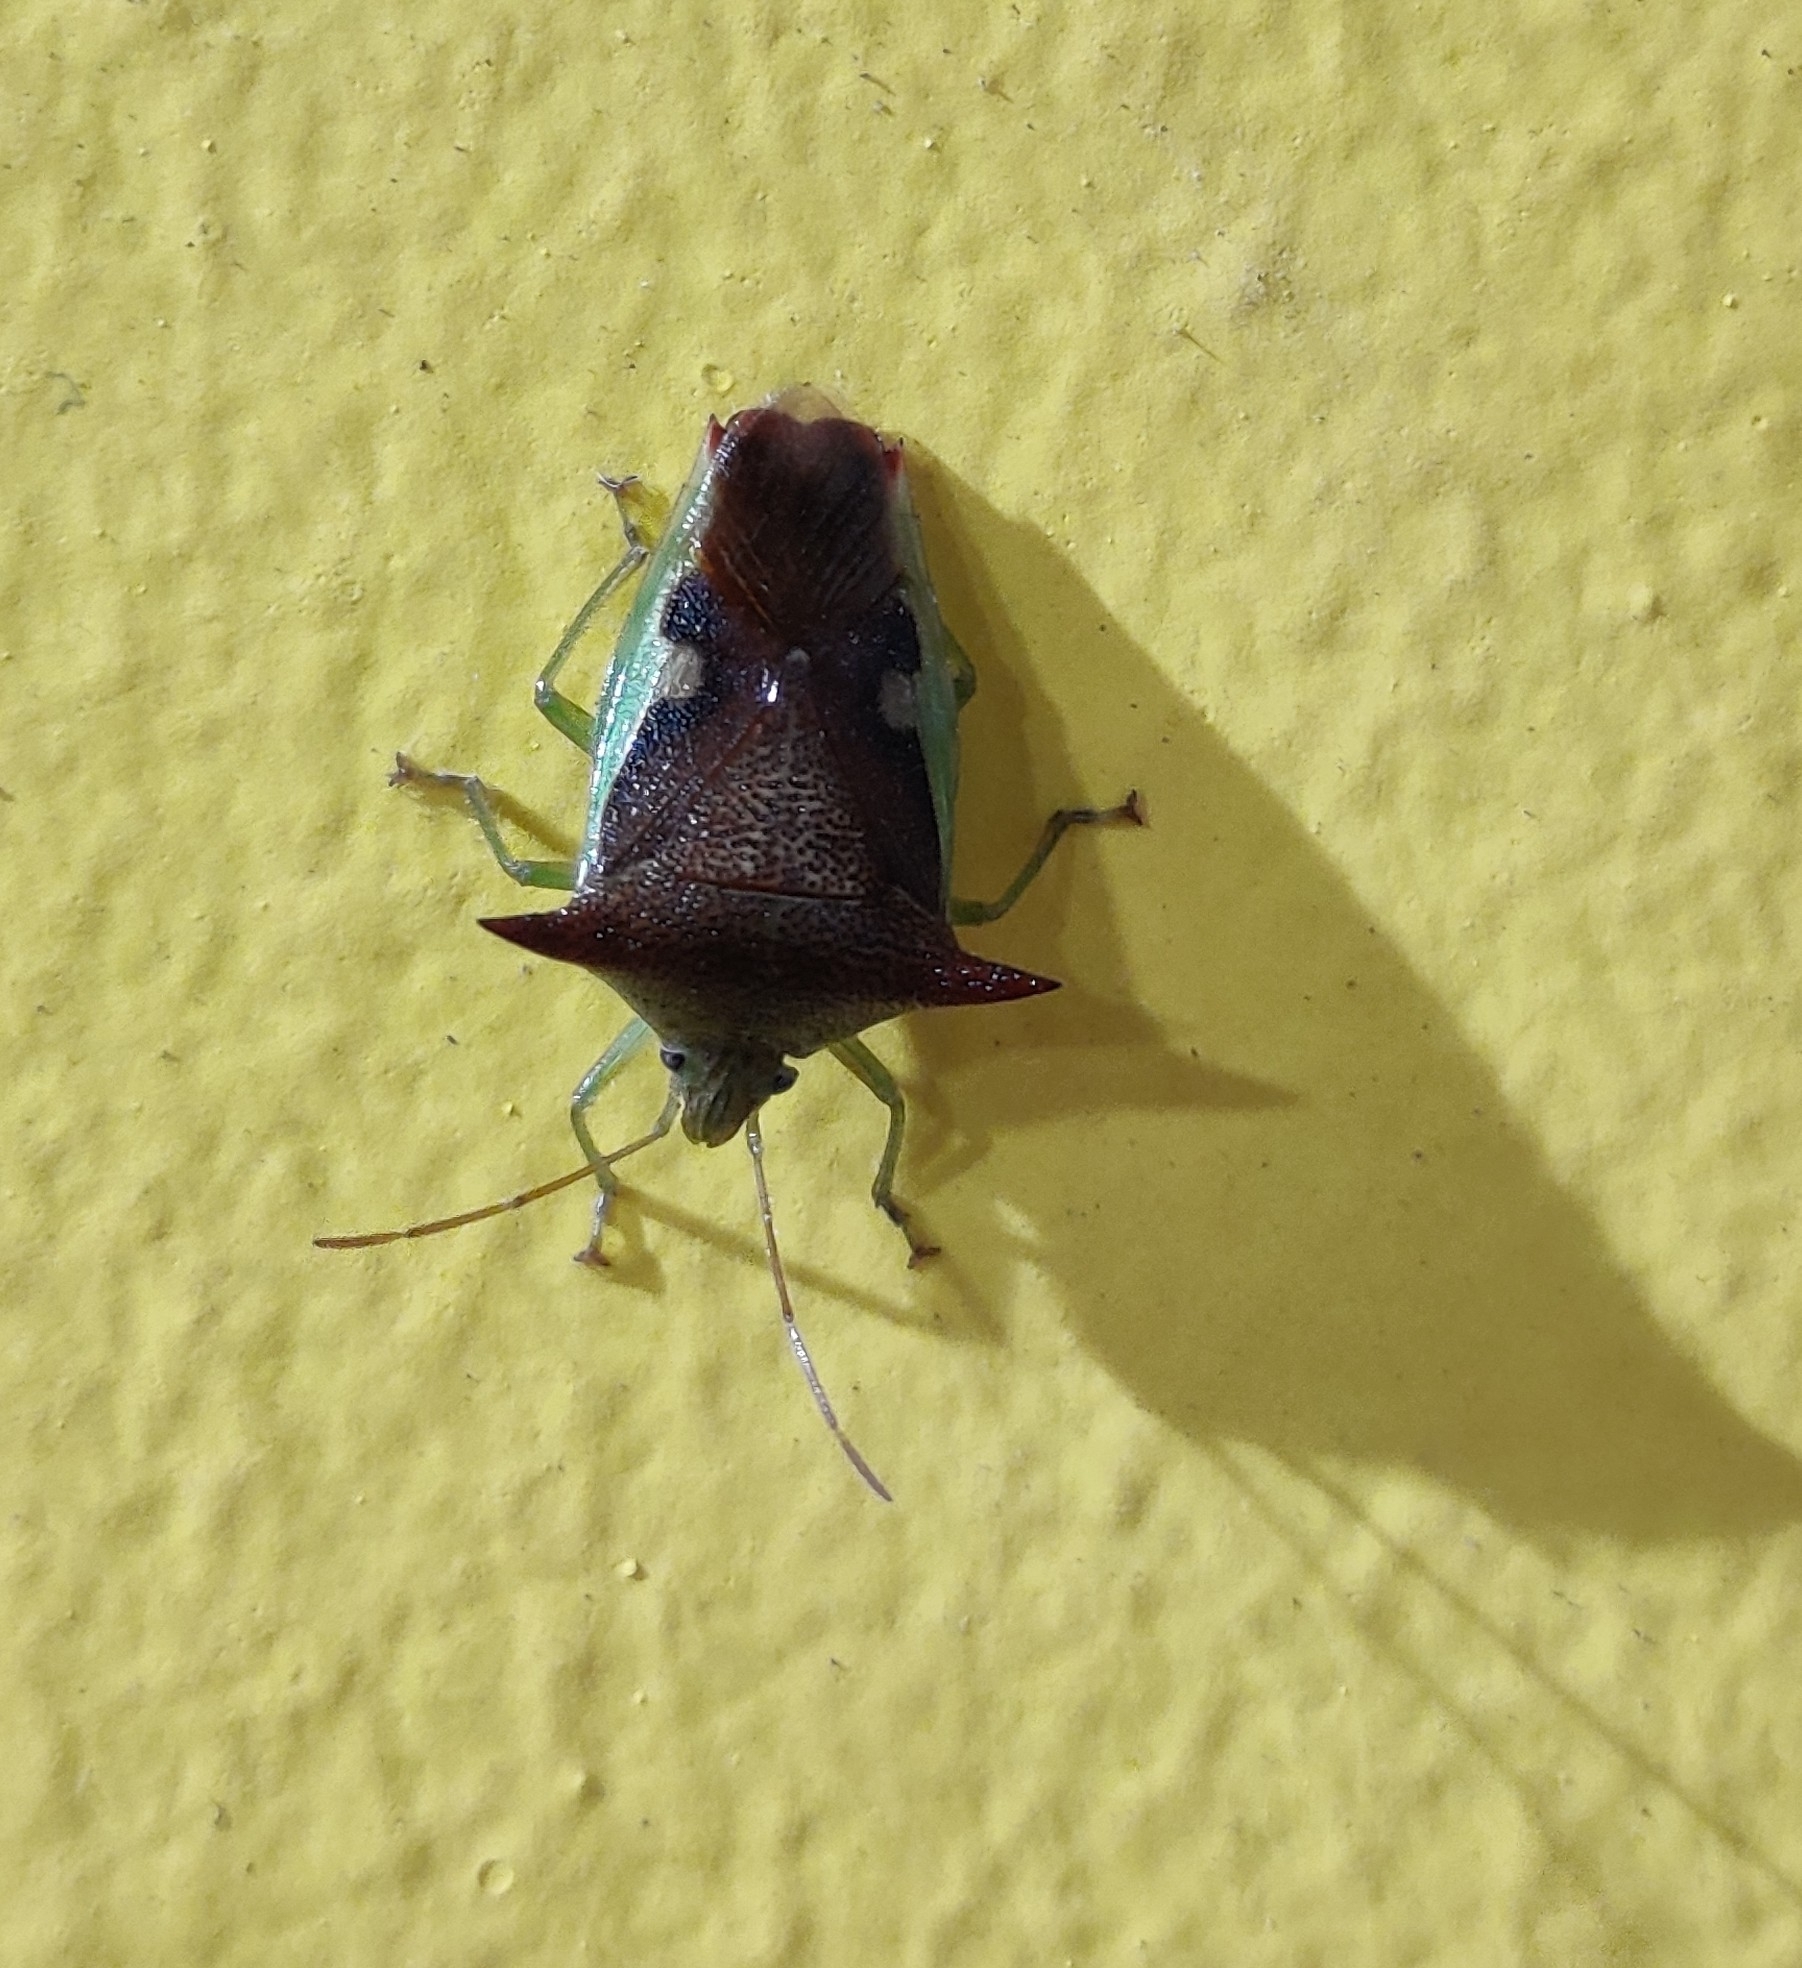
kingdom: Animalia
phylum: Arthropoda
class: Insecta
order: Hemiptera
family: Acanthosomatidae
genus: Elasmucha
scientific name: Elasmucha nipponica
